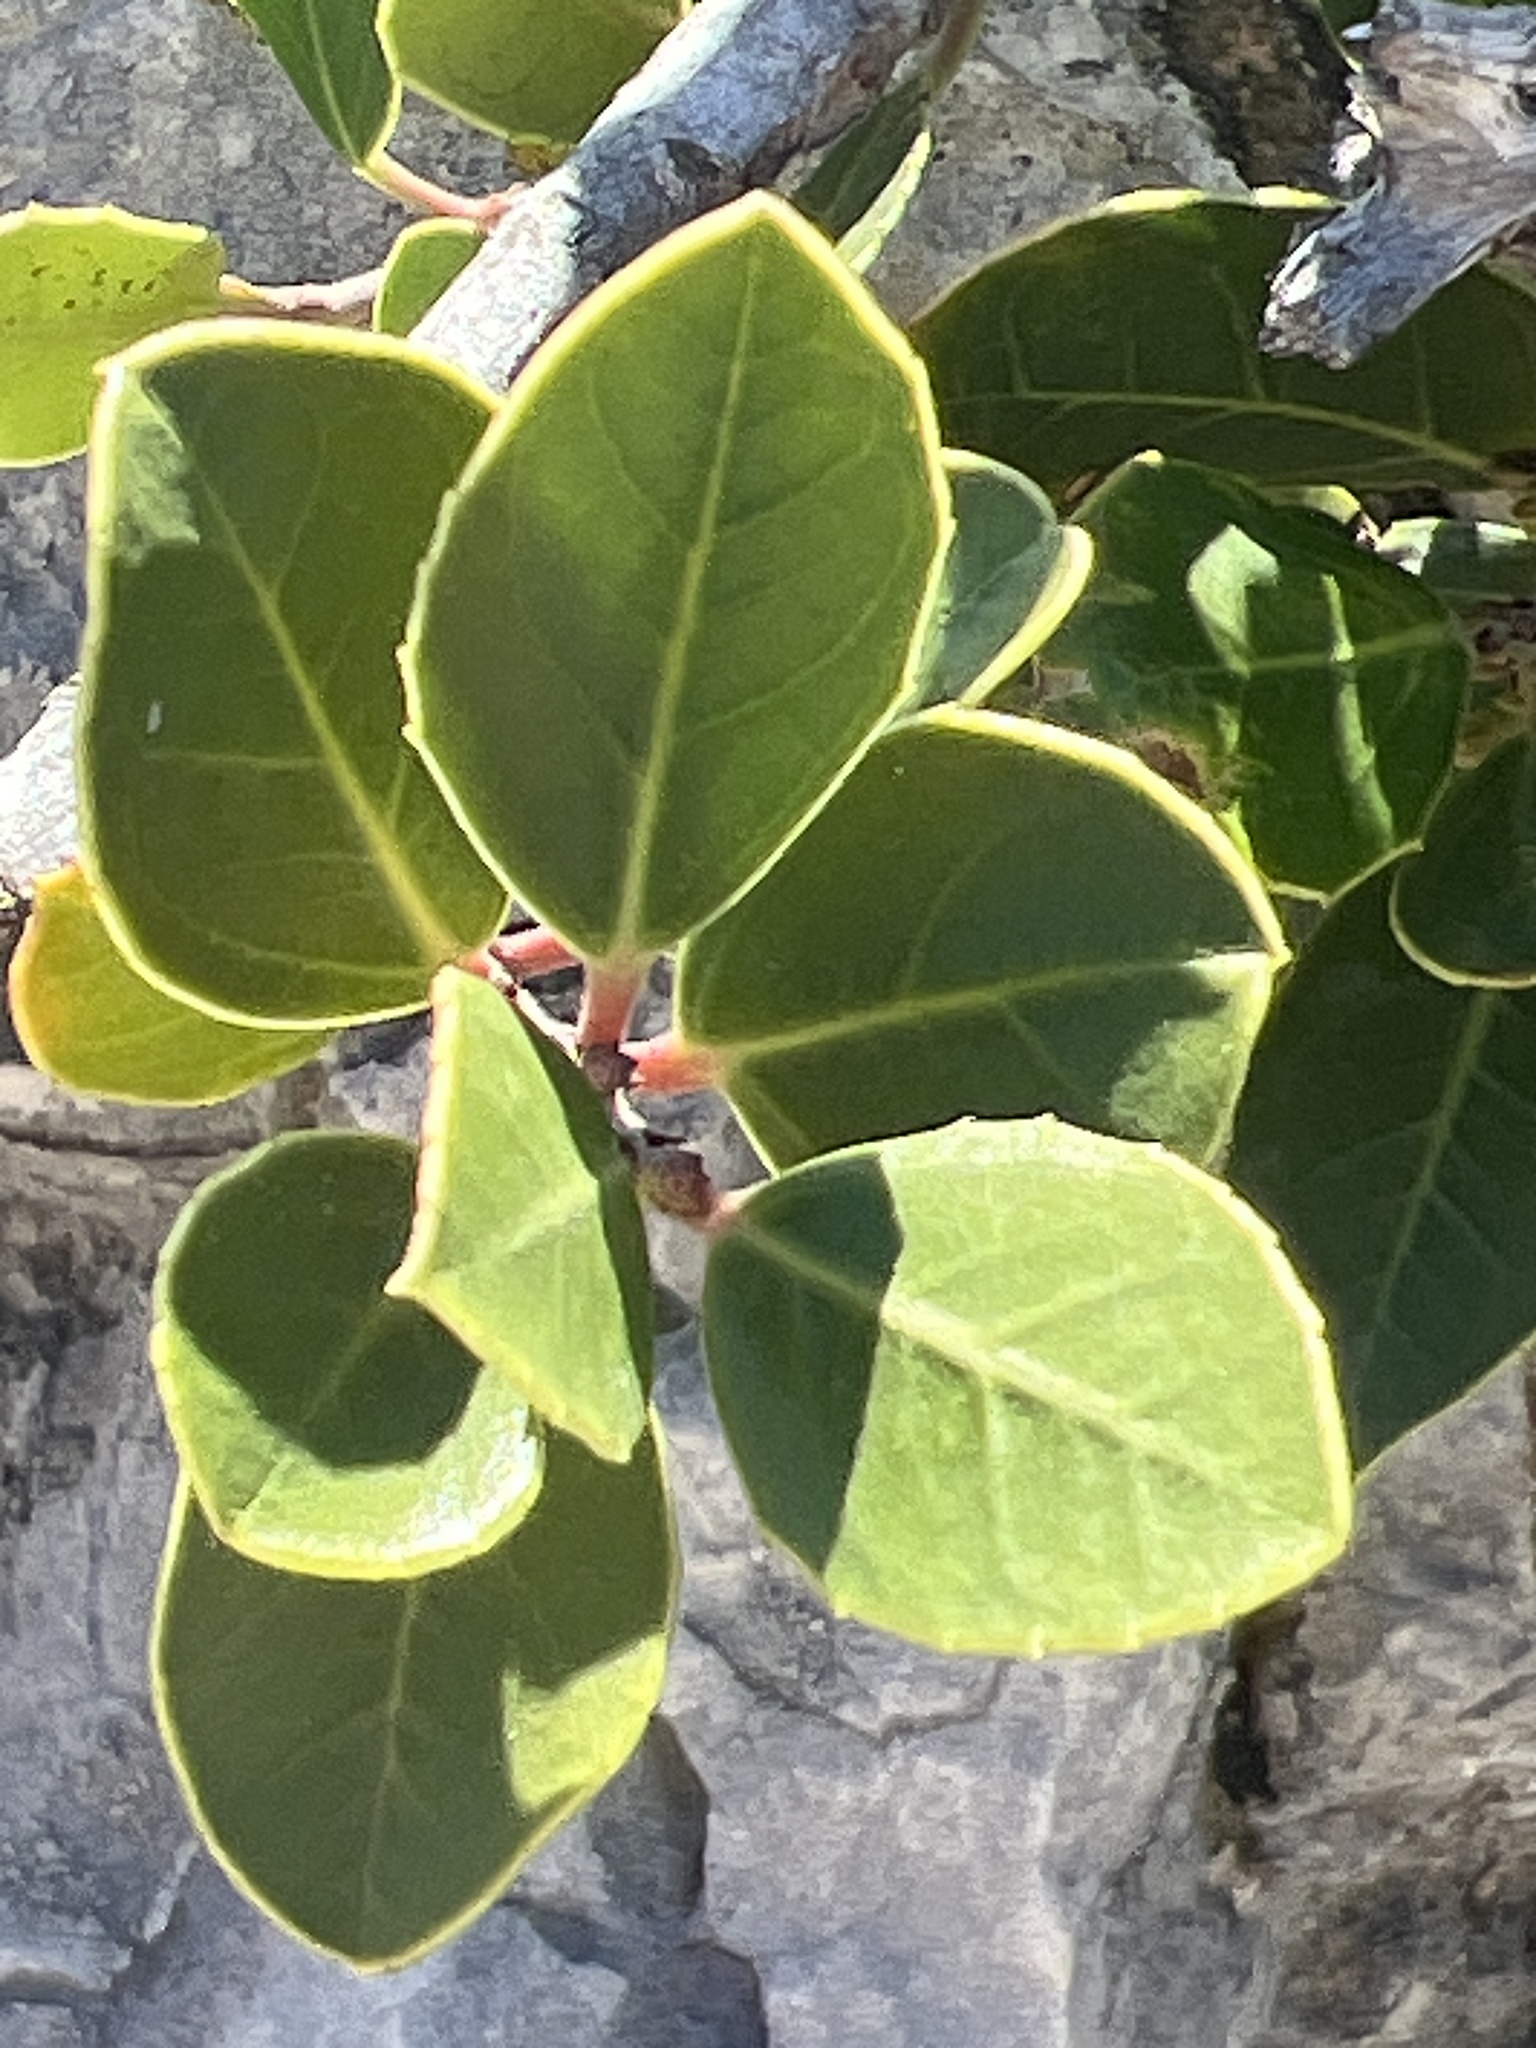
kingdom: Plantae
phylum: Tracheophyta
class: Magnoliopsida
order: Rosales
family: Rhamnaceae
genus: Rhamnus
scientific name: Rhamnus alaternus
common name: Mediterranean buckthorn
